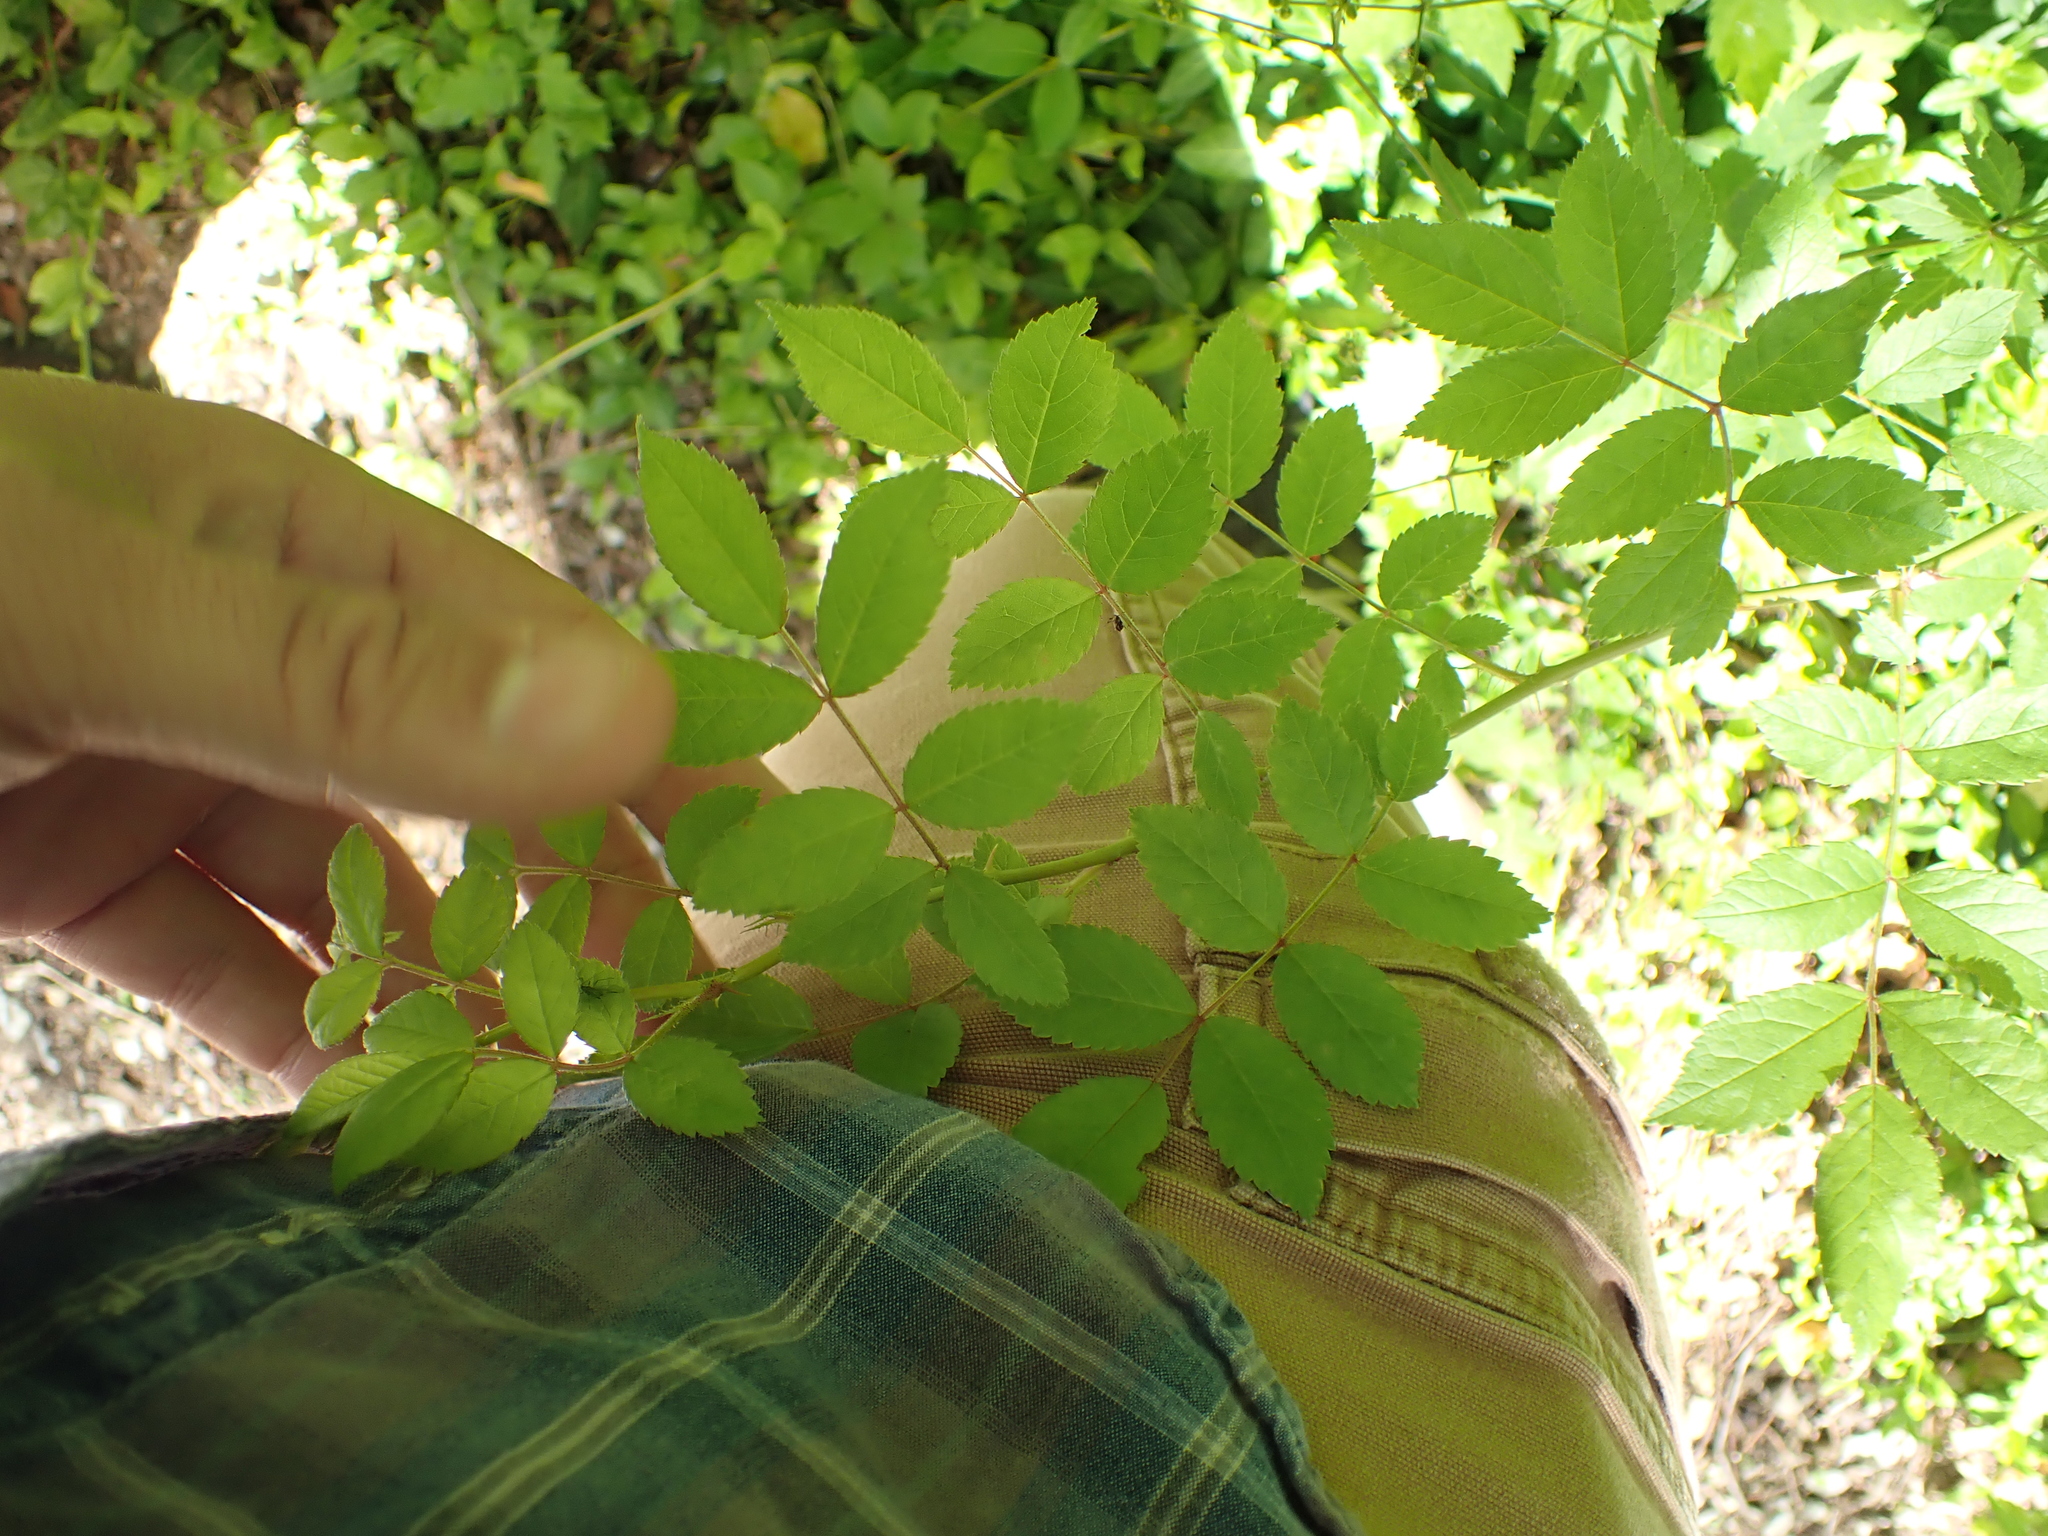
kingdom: Plantae
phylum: Tracheophyta
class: Magnoliopsida
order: Rosales
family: Rosaceae
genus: Rosa
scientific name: Rosa multiflora
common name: Multiflora rose
